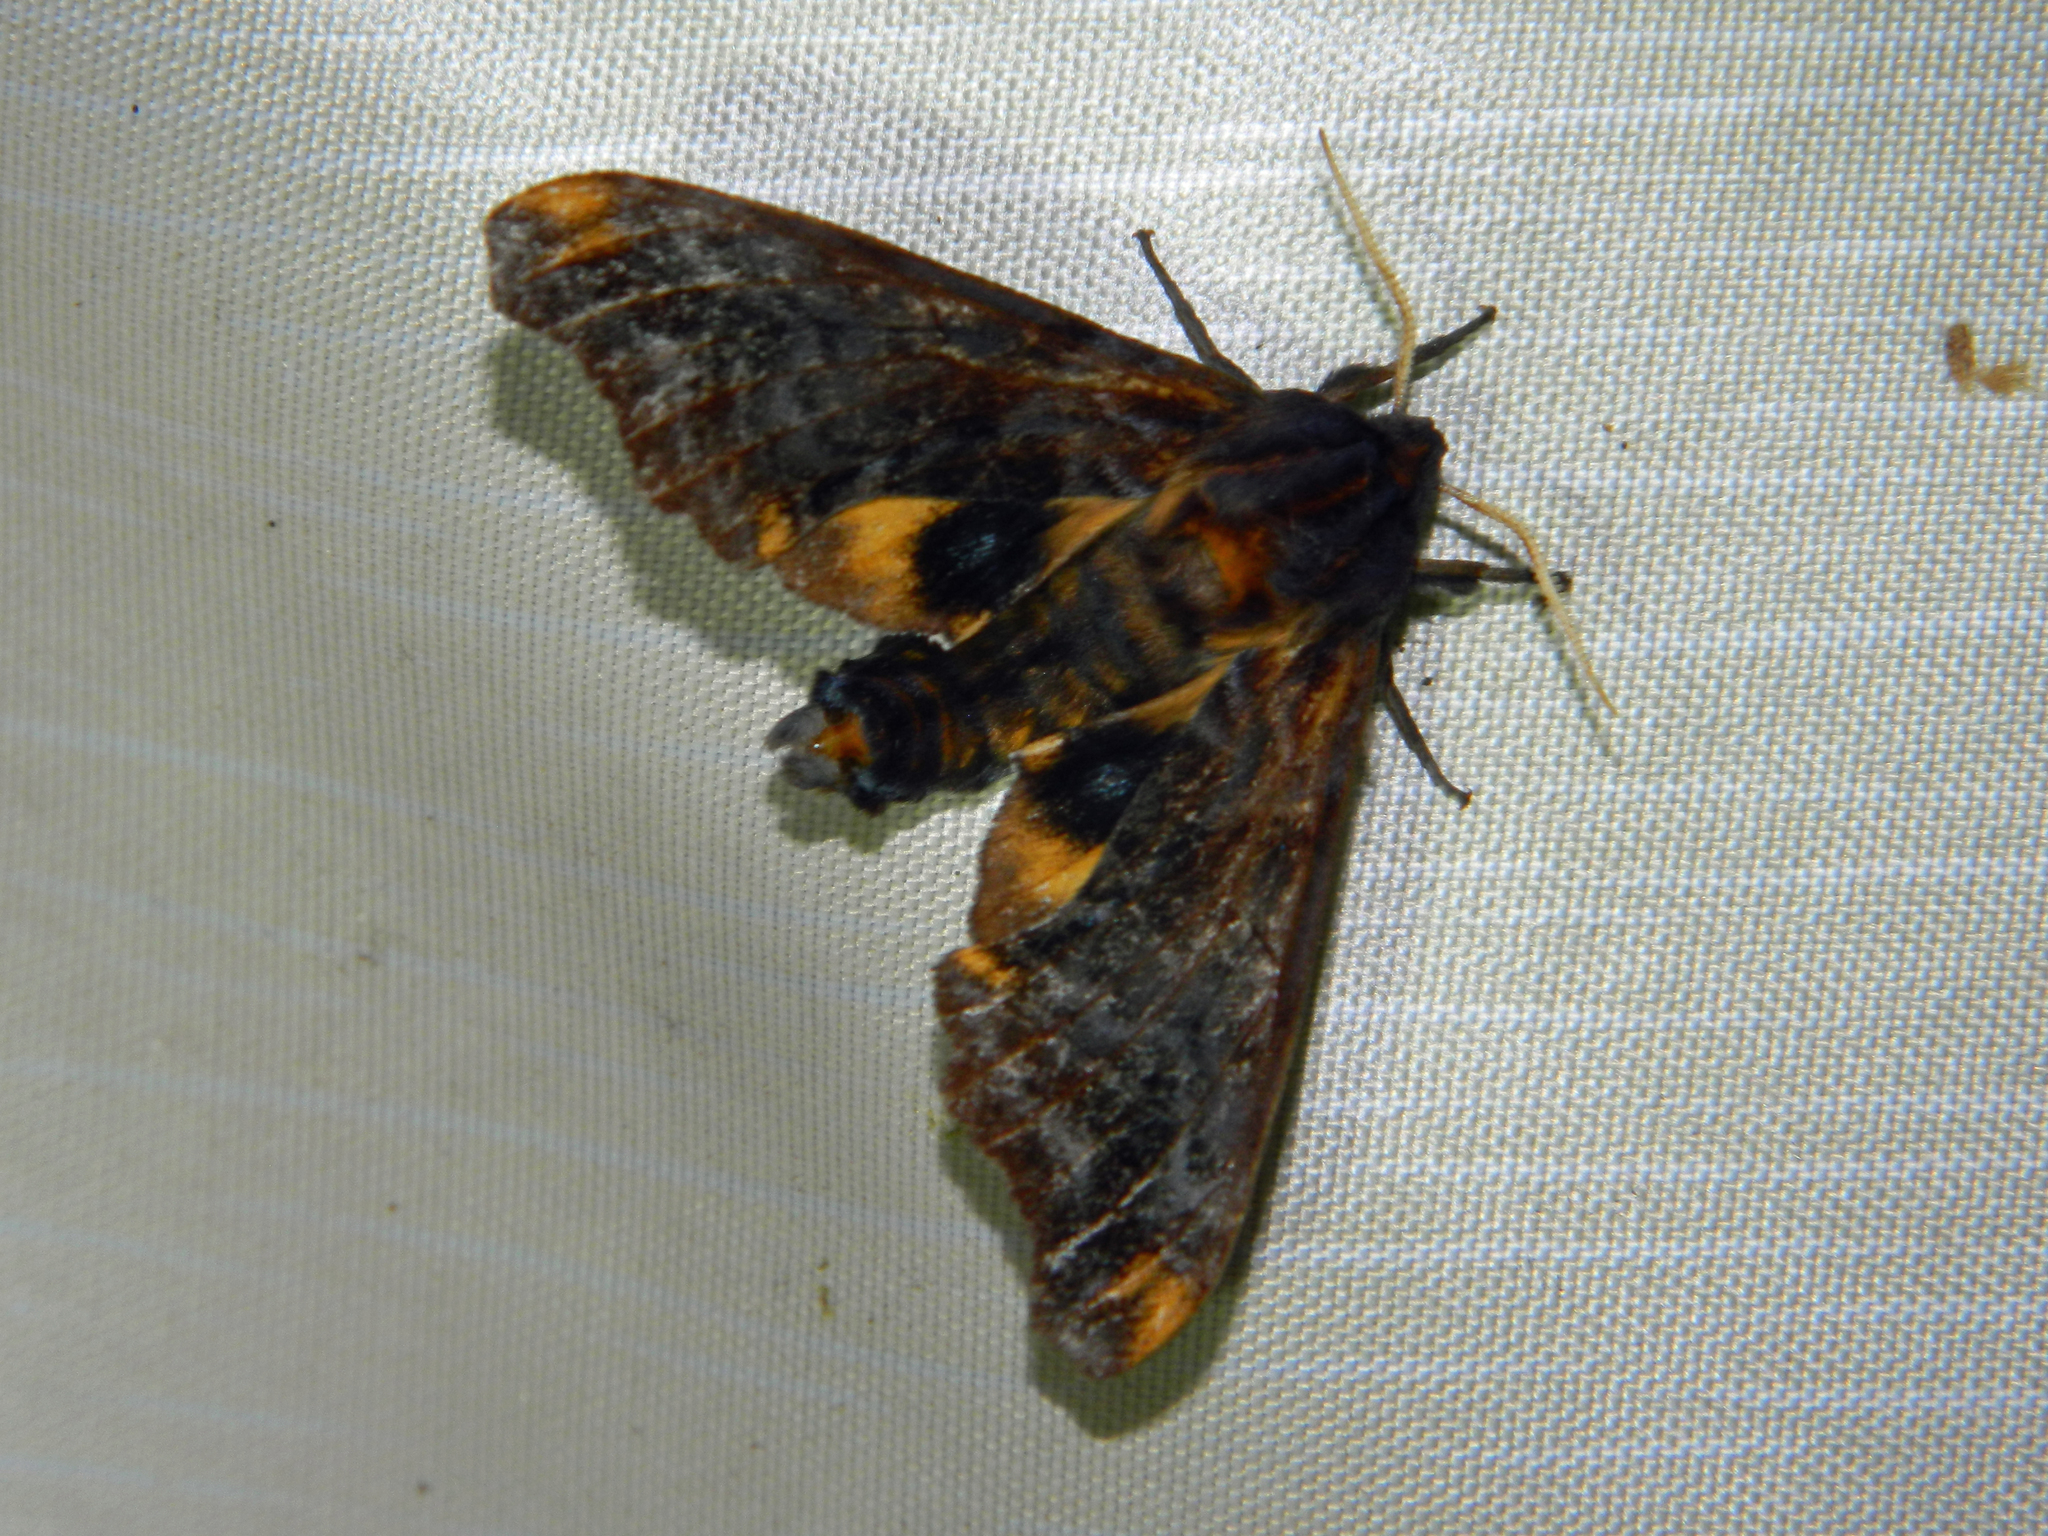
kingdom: Animalia
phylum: Arthropoda
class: Insecta
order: Lepidoptera
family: Sphingidae
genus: Paonias
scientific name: Paonias myops
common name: Small-eyed sphinx
